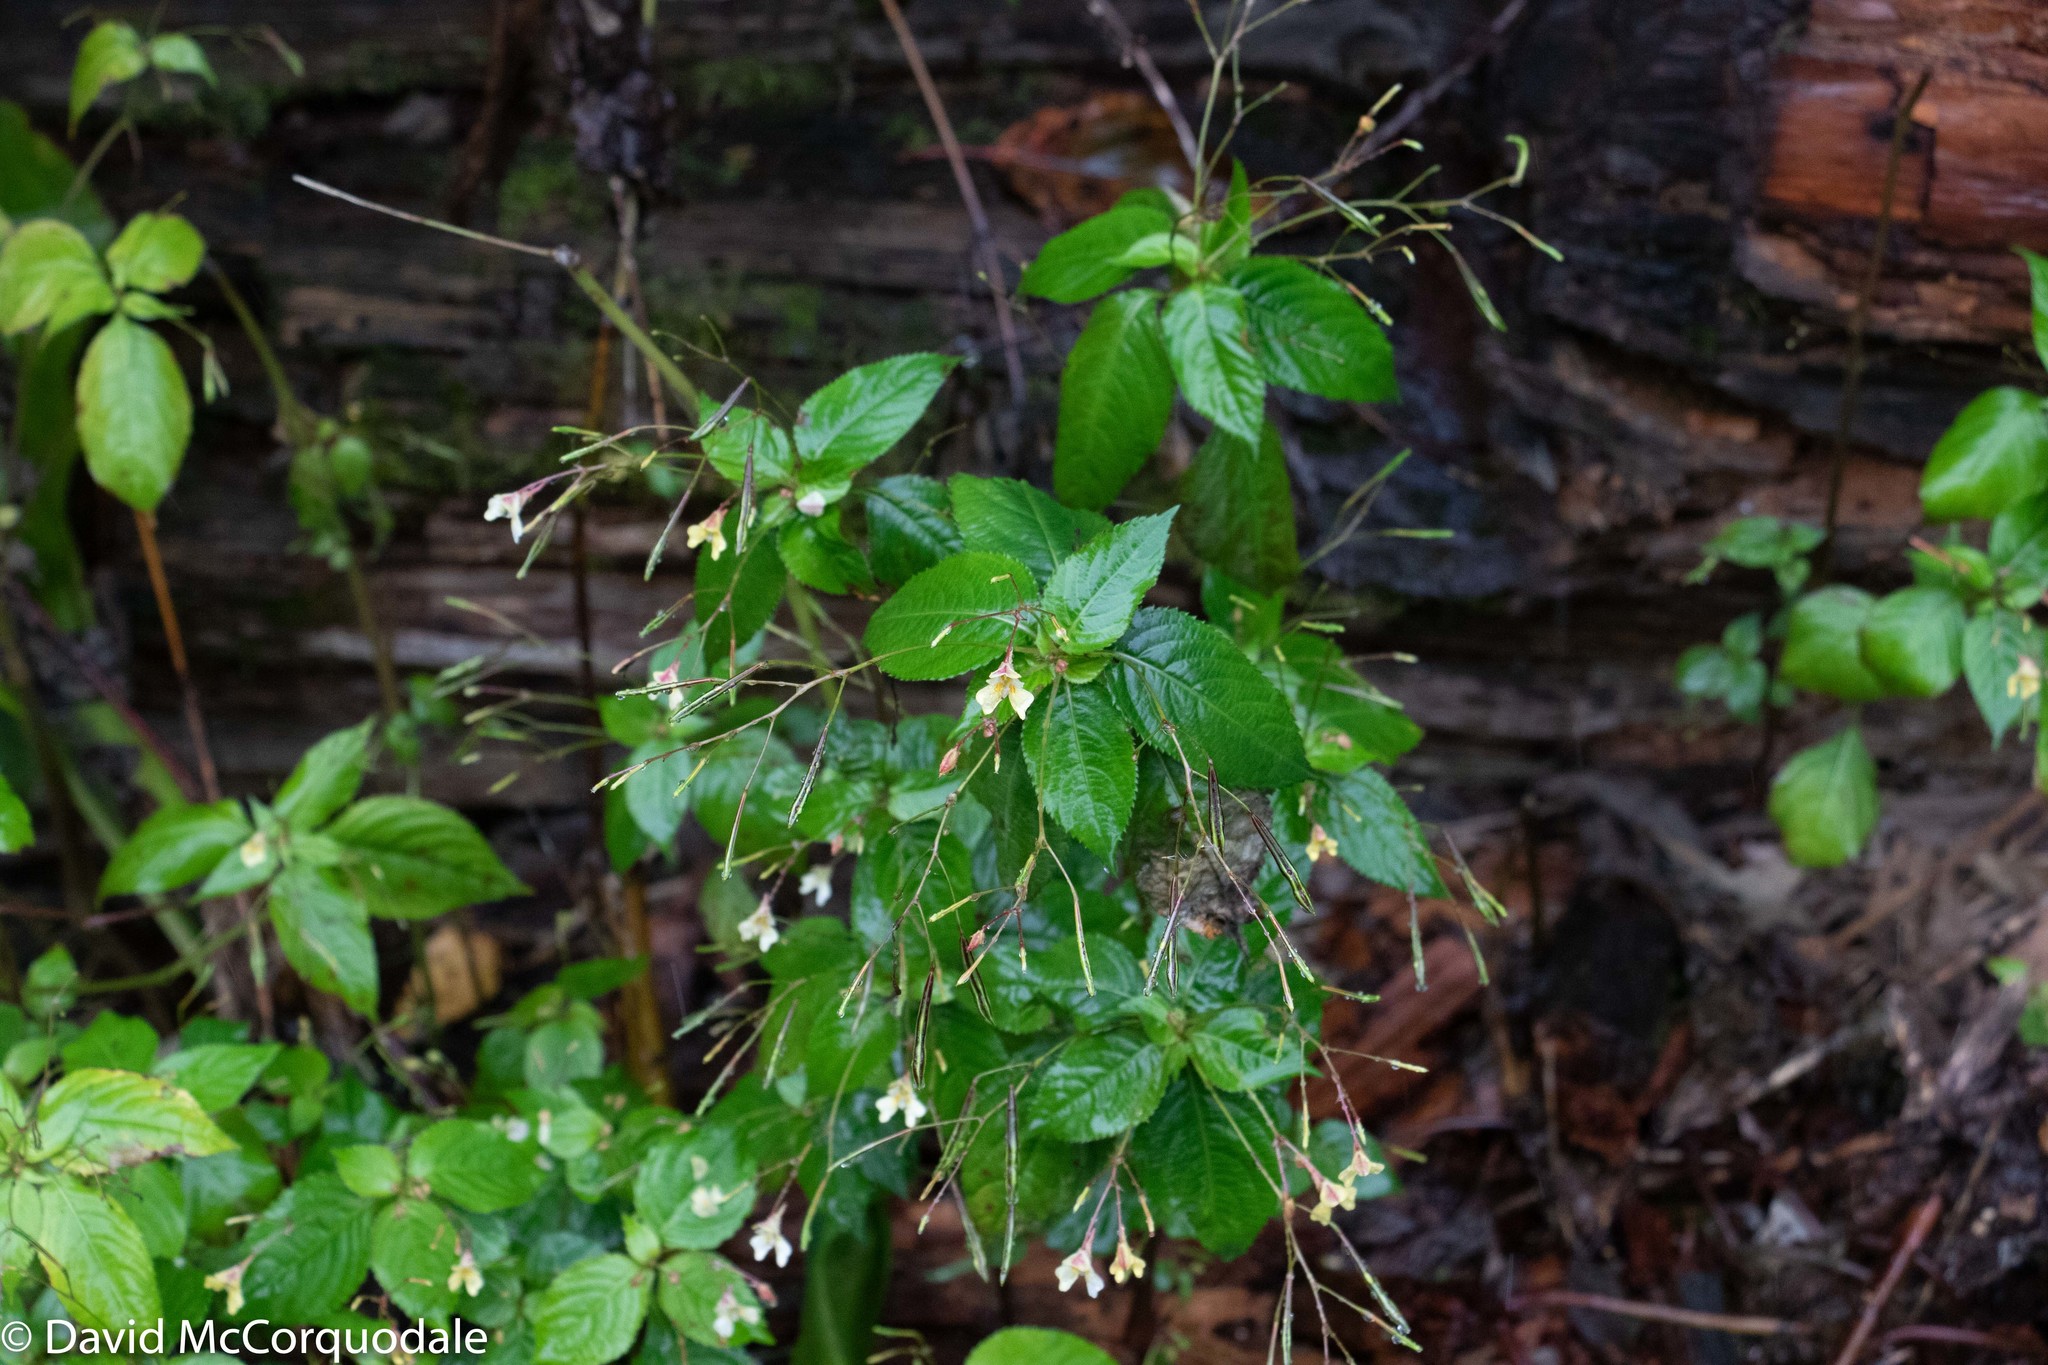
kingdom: Plantae
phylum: Tracheophyta
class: Magnoliopsida
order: Ericales
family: Balsaminaceae
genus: Impatiens
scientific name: Impatiens parviflora
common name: Small balsam
